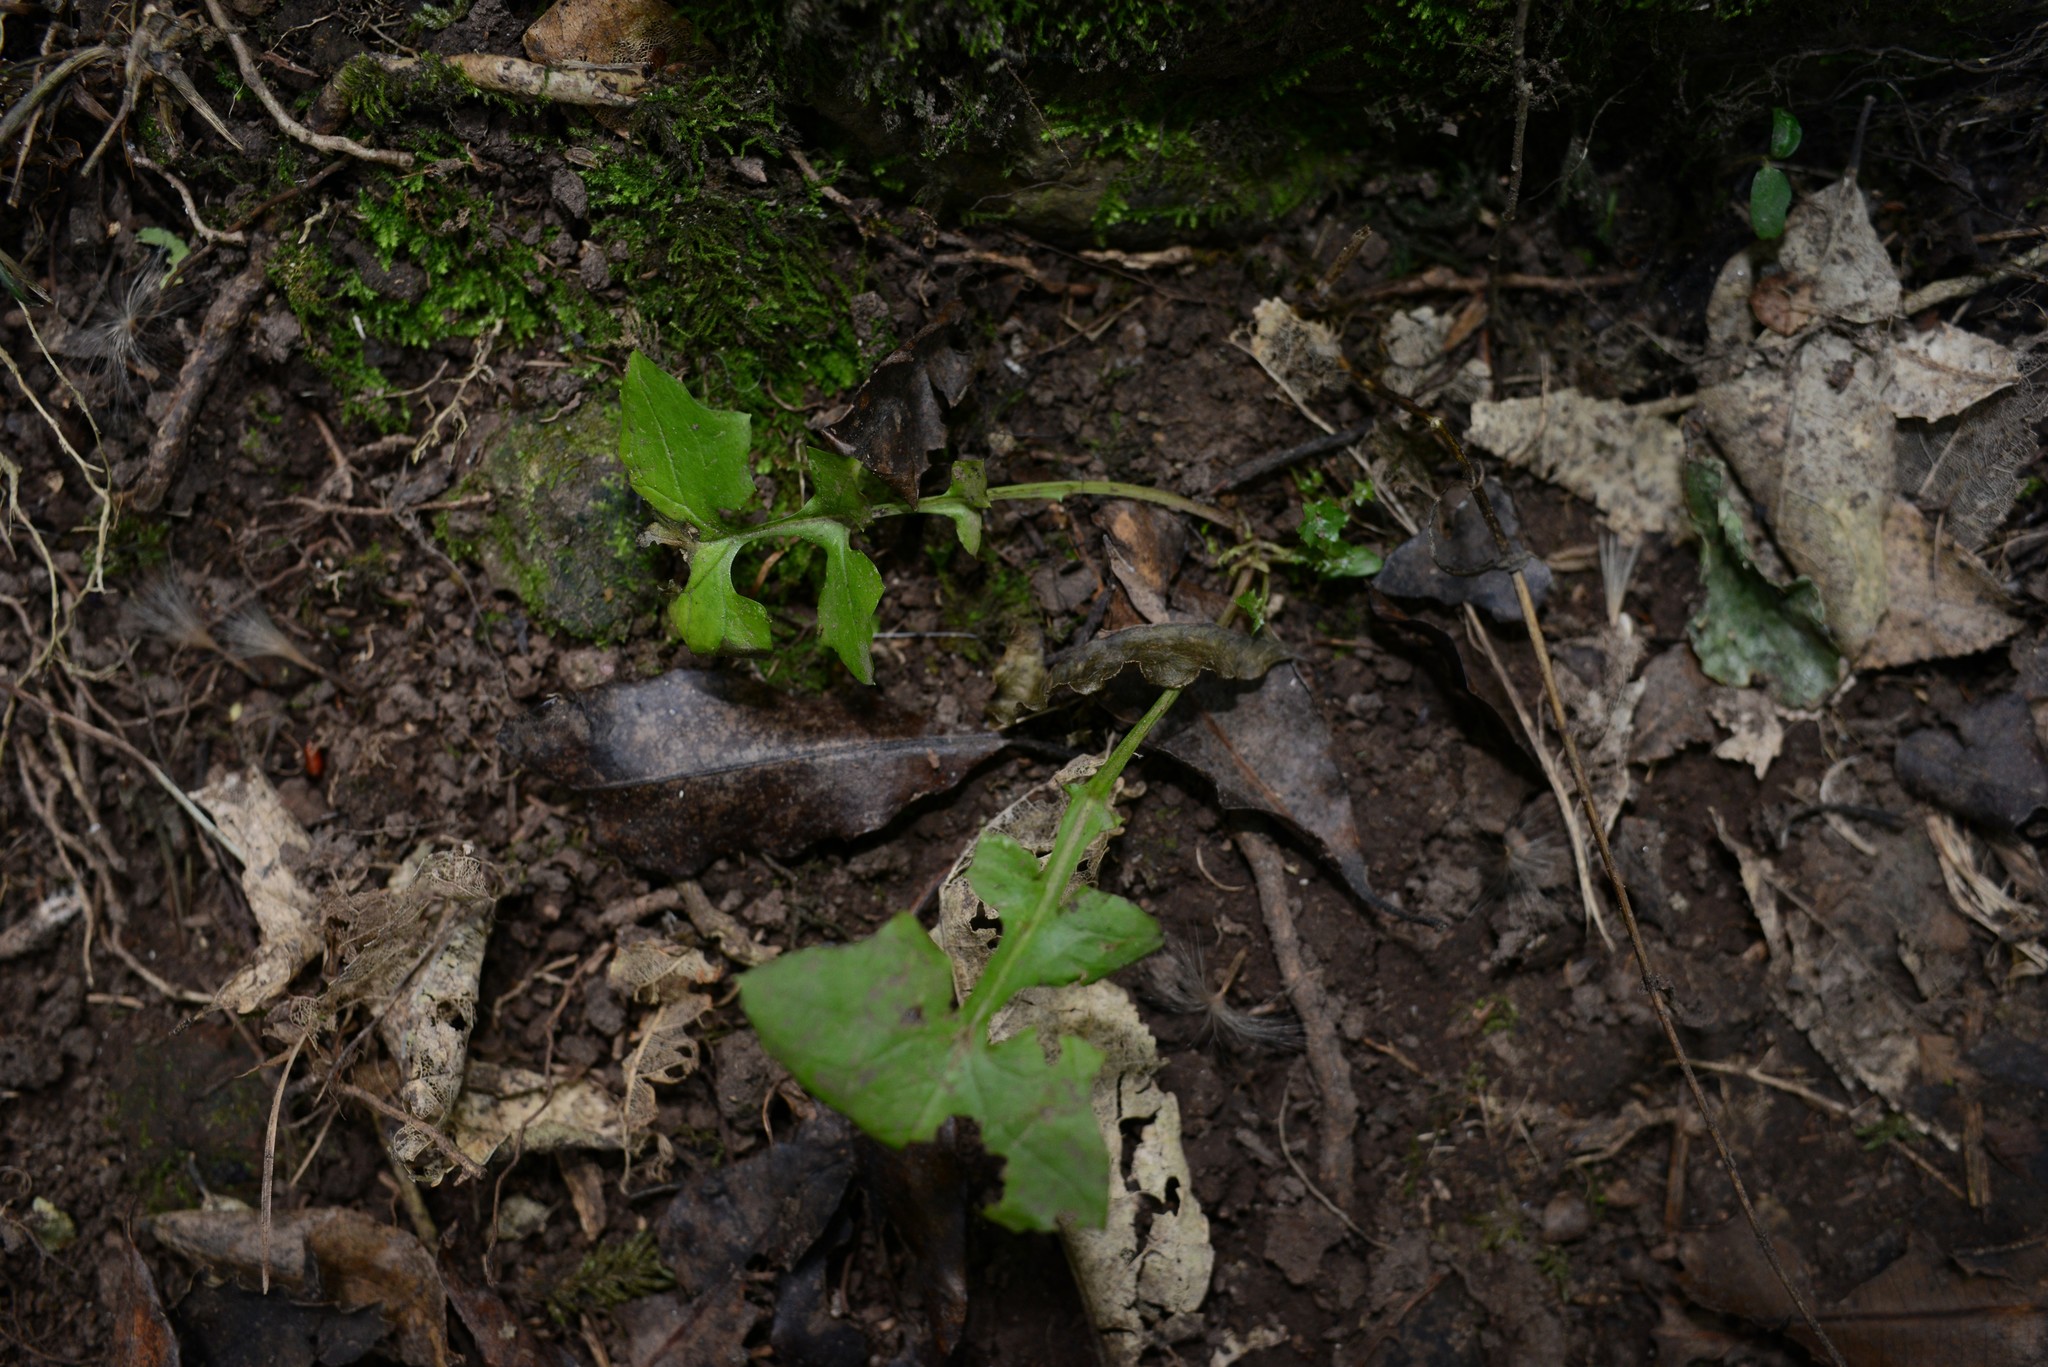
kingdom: Plantae
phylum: Tracheophyta
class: Magnoliopsida
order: Asterales
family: Asteraceae
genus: Mycelis
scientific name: Mycelis muralis
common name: Wall lettuce
